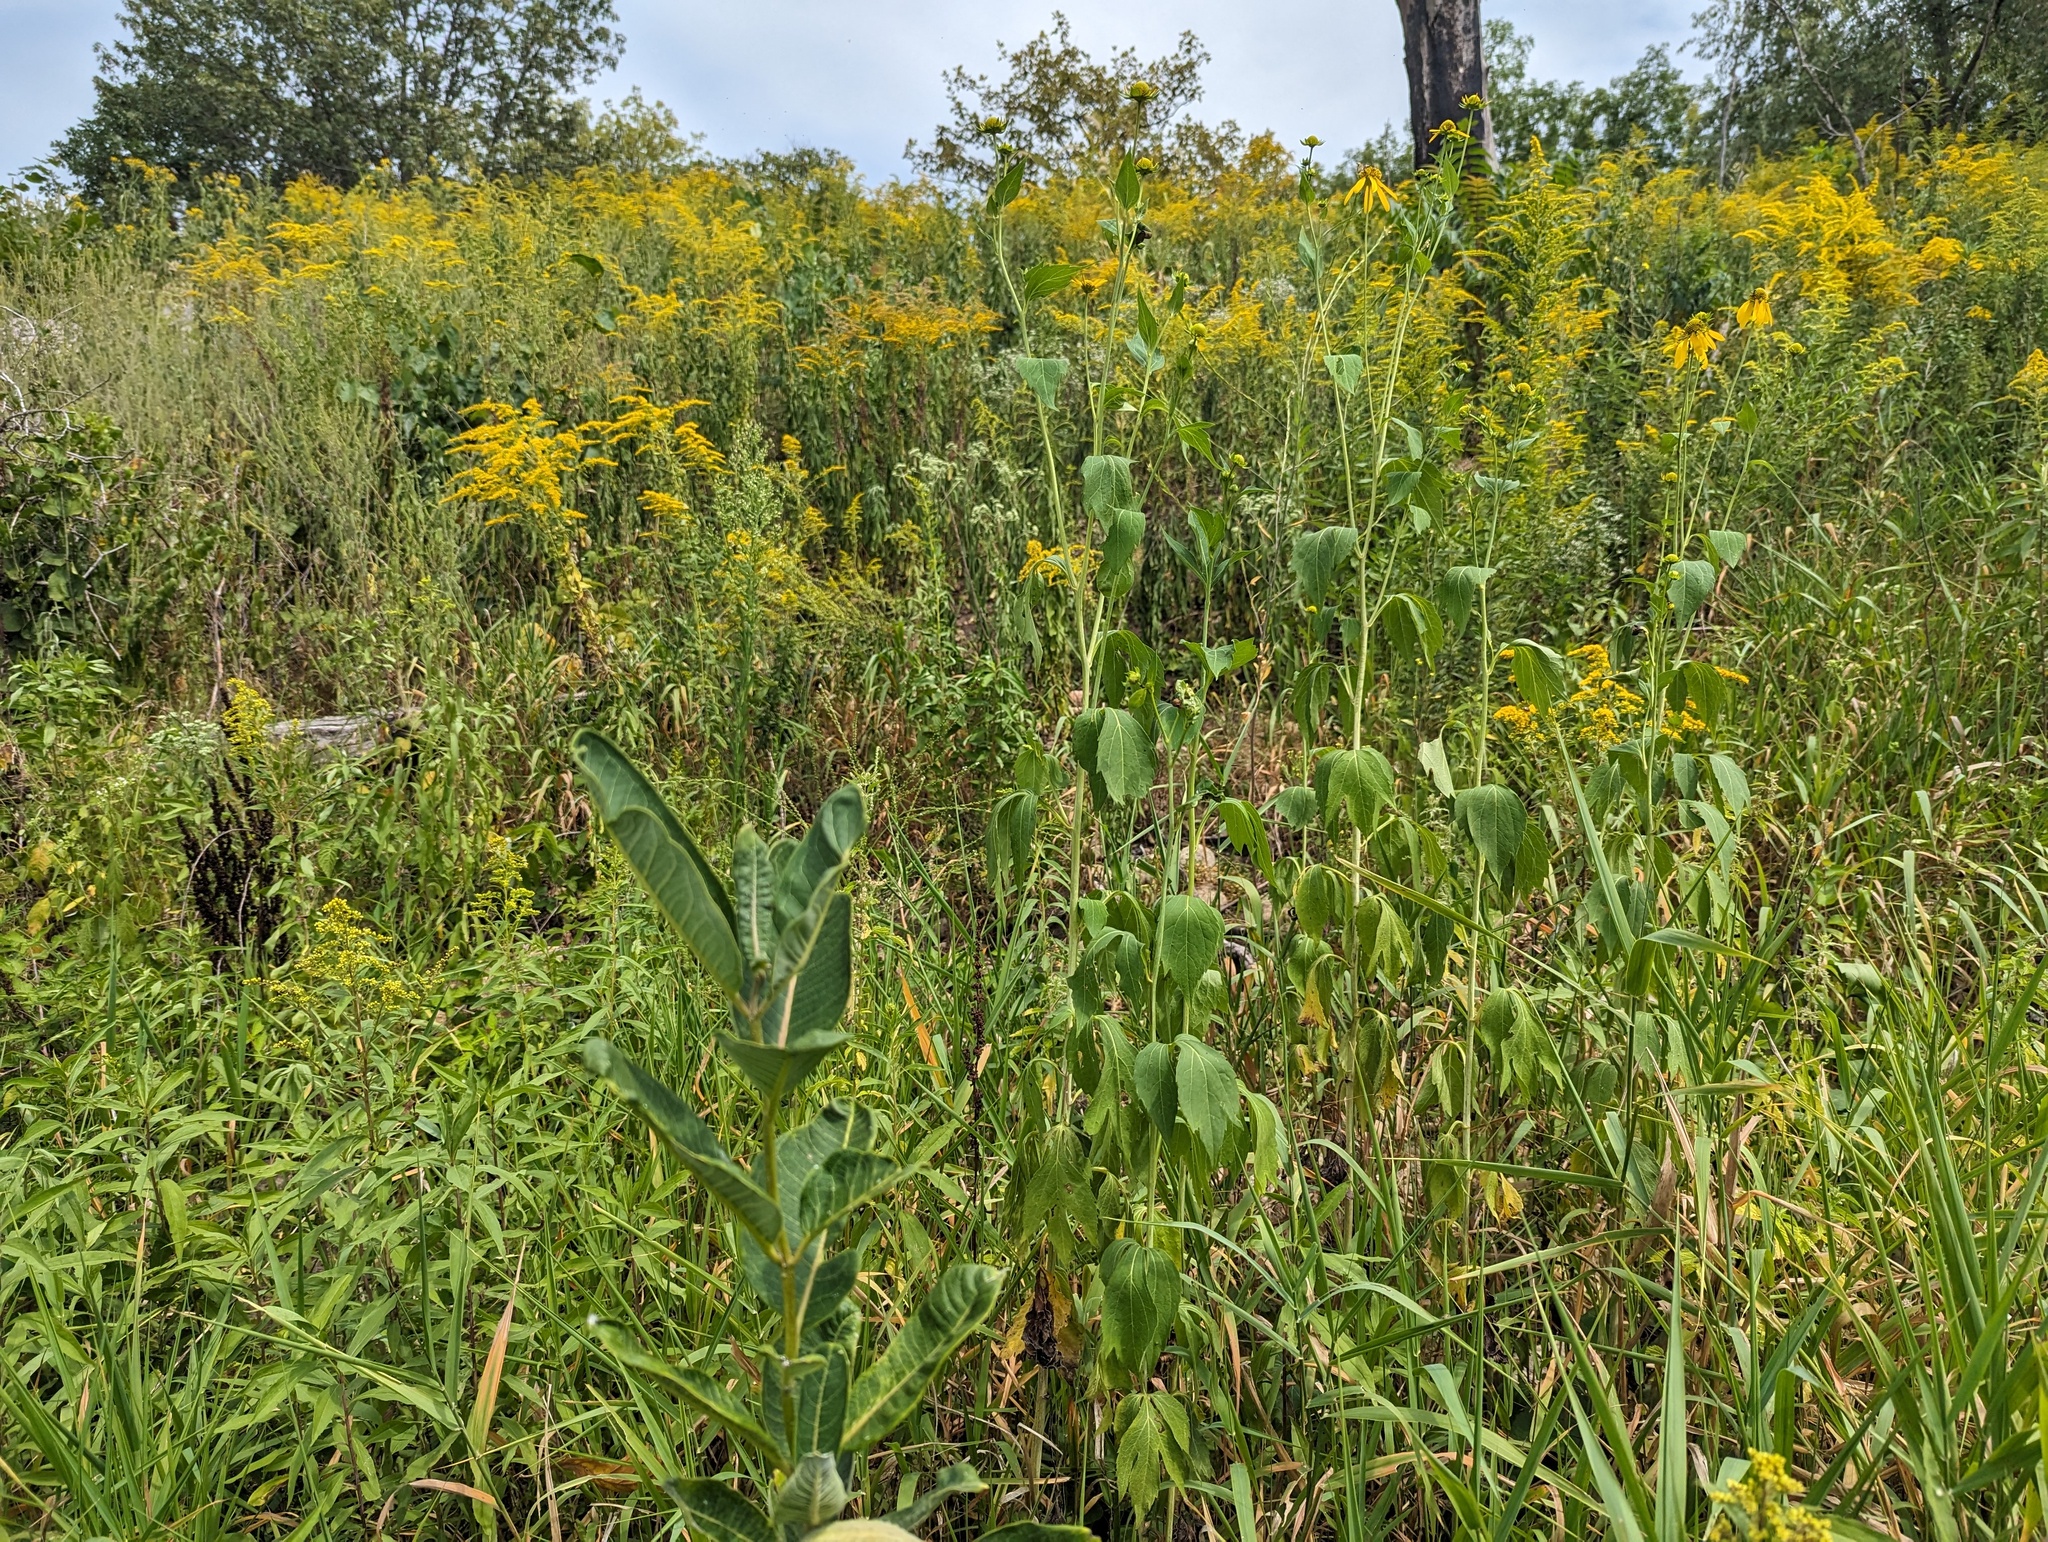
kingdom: Plantae
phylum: Tracheophyta
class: Magnoliopsida
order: Asterales
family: Asteraceae
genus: Rudbeckia
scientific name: Rudbeckia laciniata
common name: Coneflower
